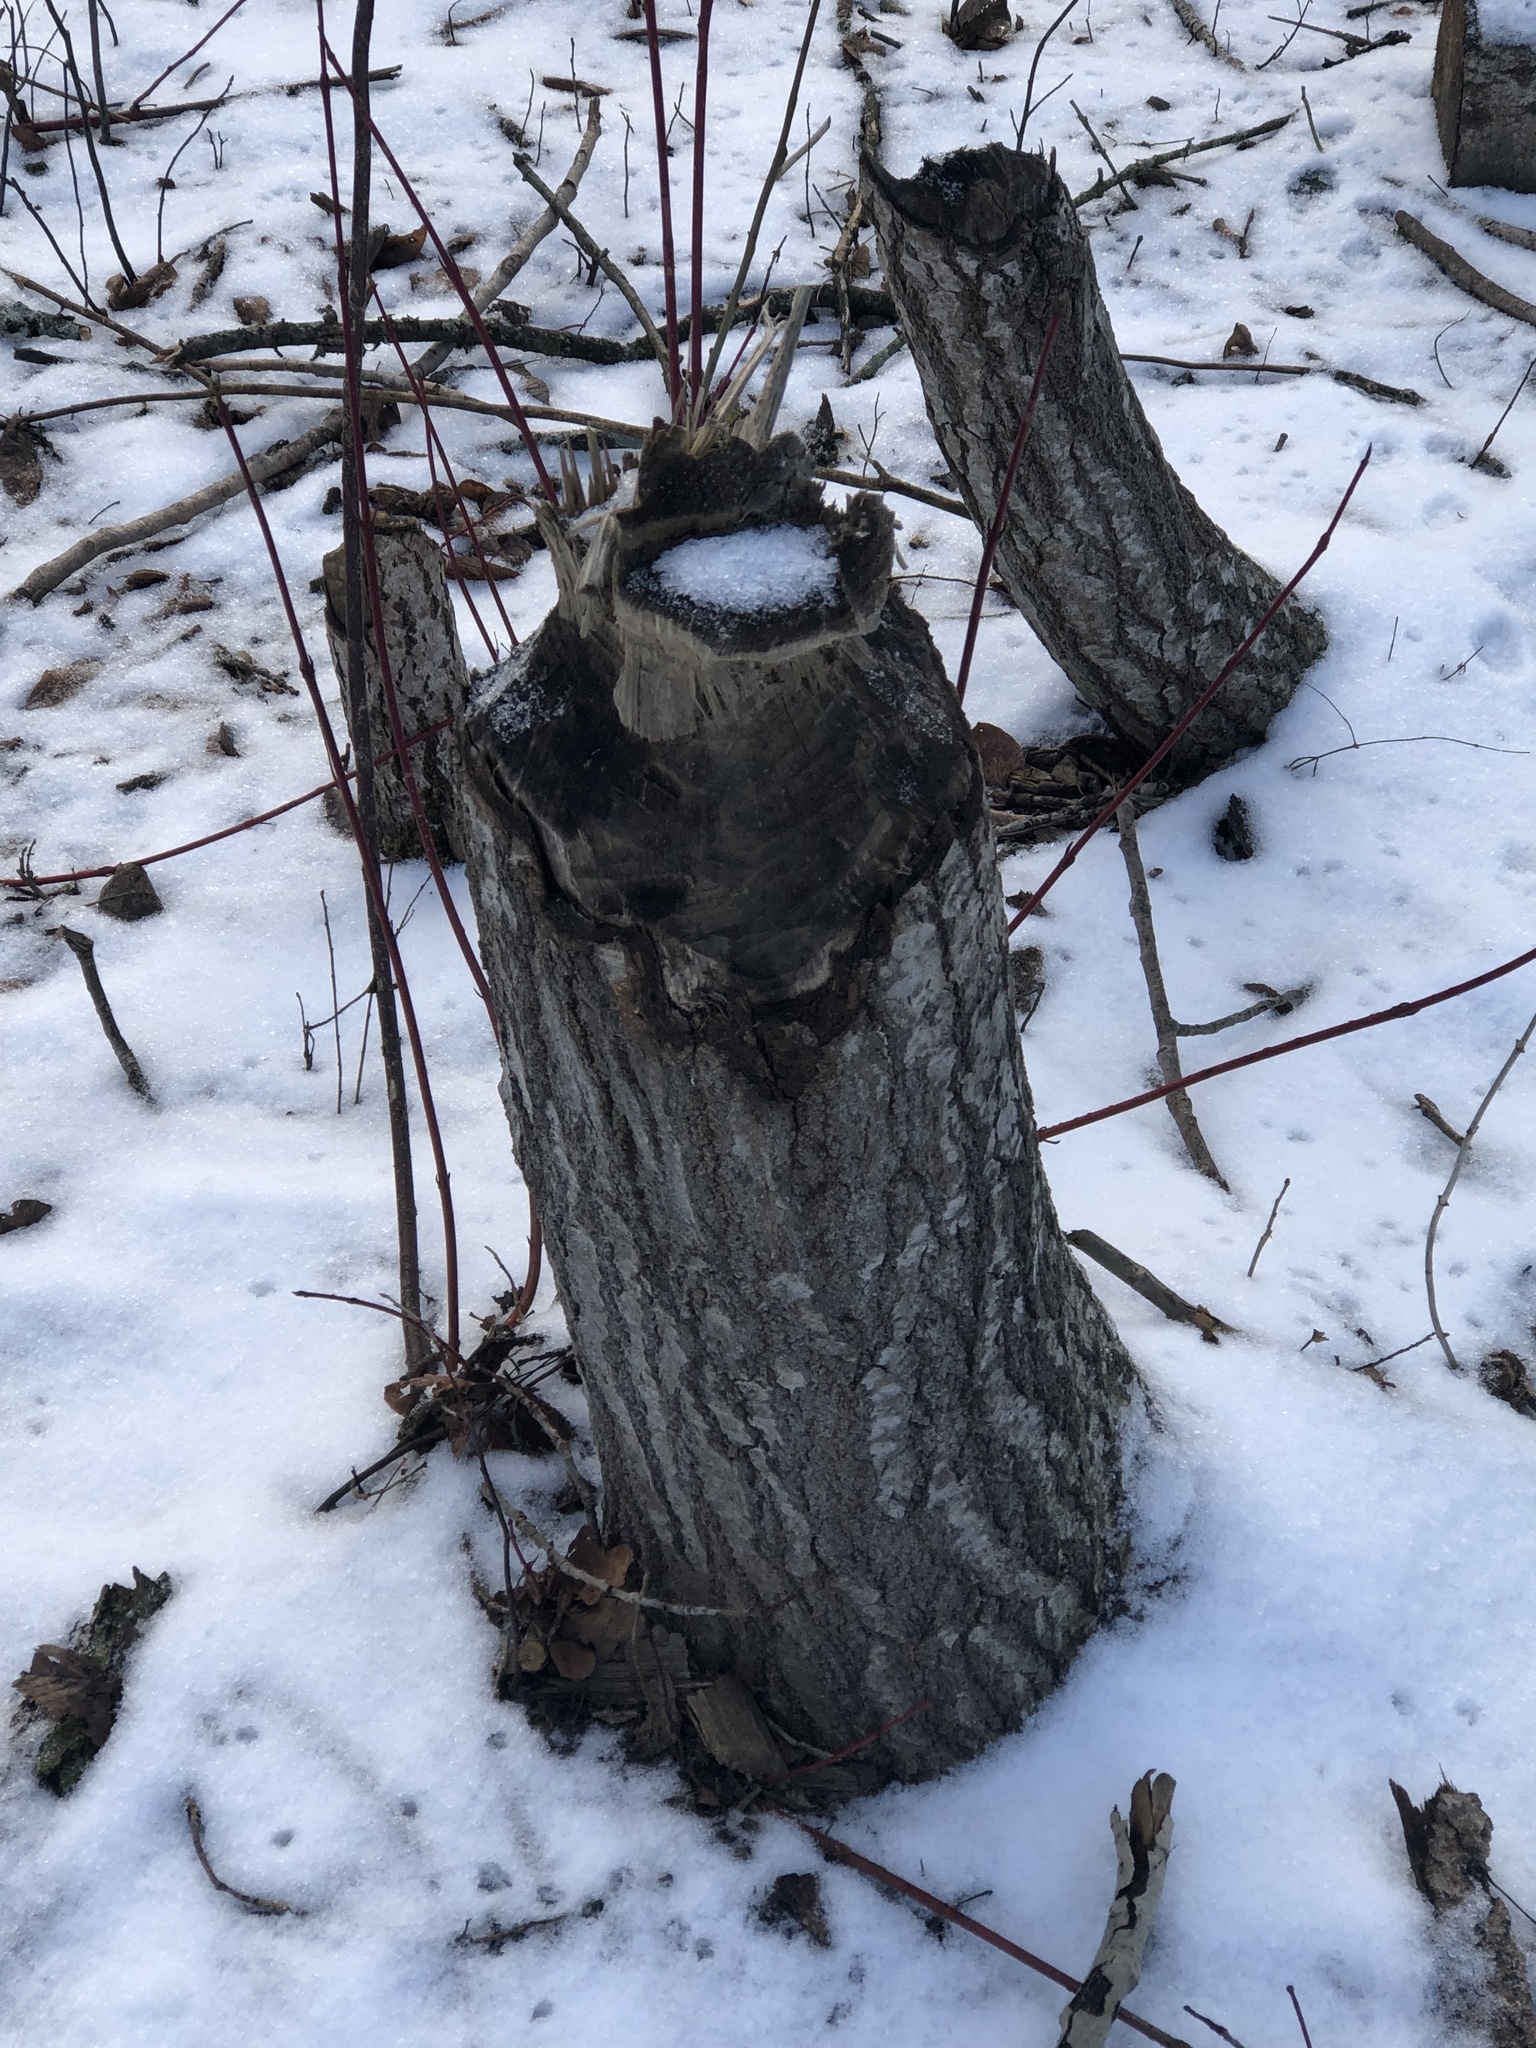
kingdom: Animalia
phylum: Chordata
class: Mammalia
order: Rodentia
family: Castoridae
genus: Castor
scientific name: Castor canadensis
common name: American beaver
